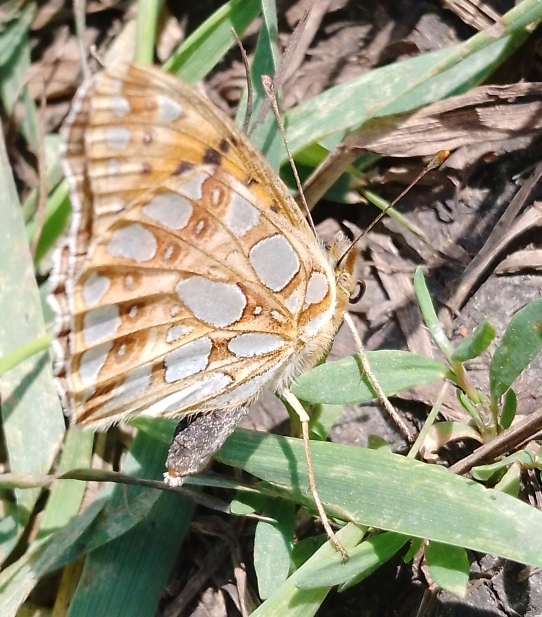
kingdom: Animalia
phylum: Arthropoda
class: Insecta
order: Lepidoptera
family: Nymphalidae
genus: Issoria
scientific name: Issoria lathonia
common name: Queen of spain fritillary
